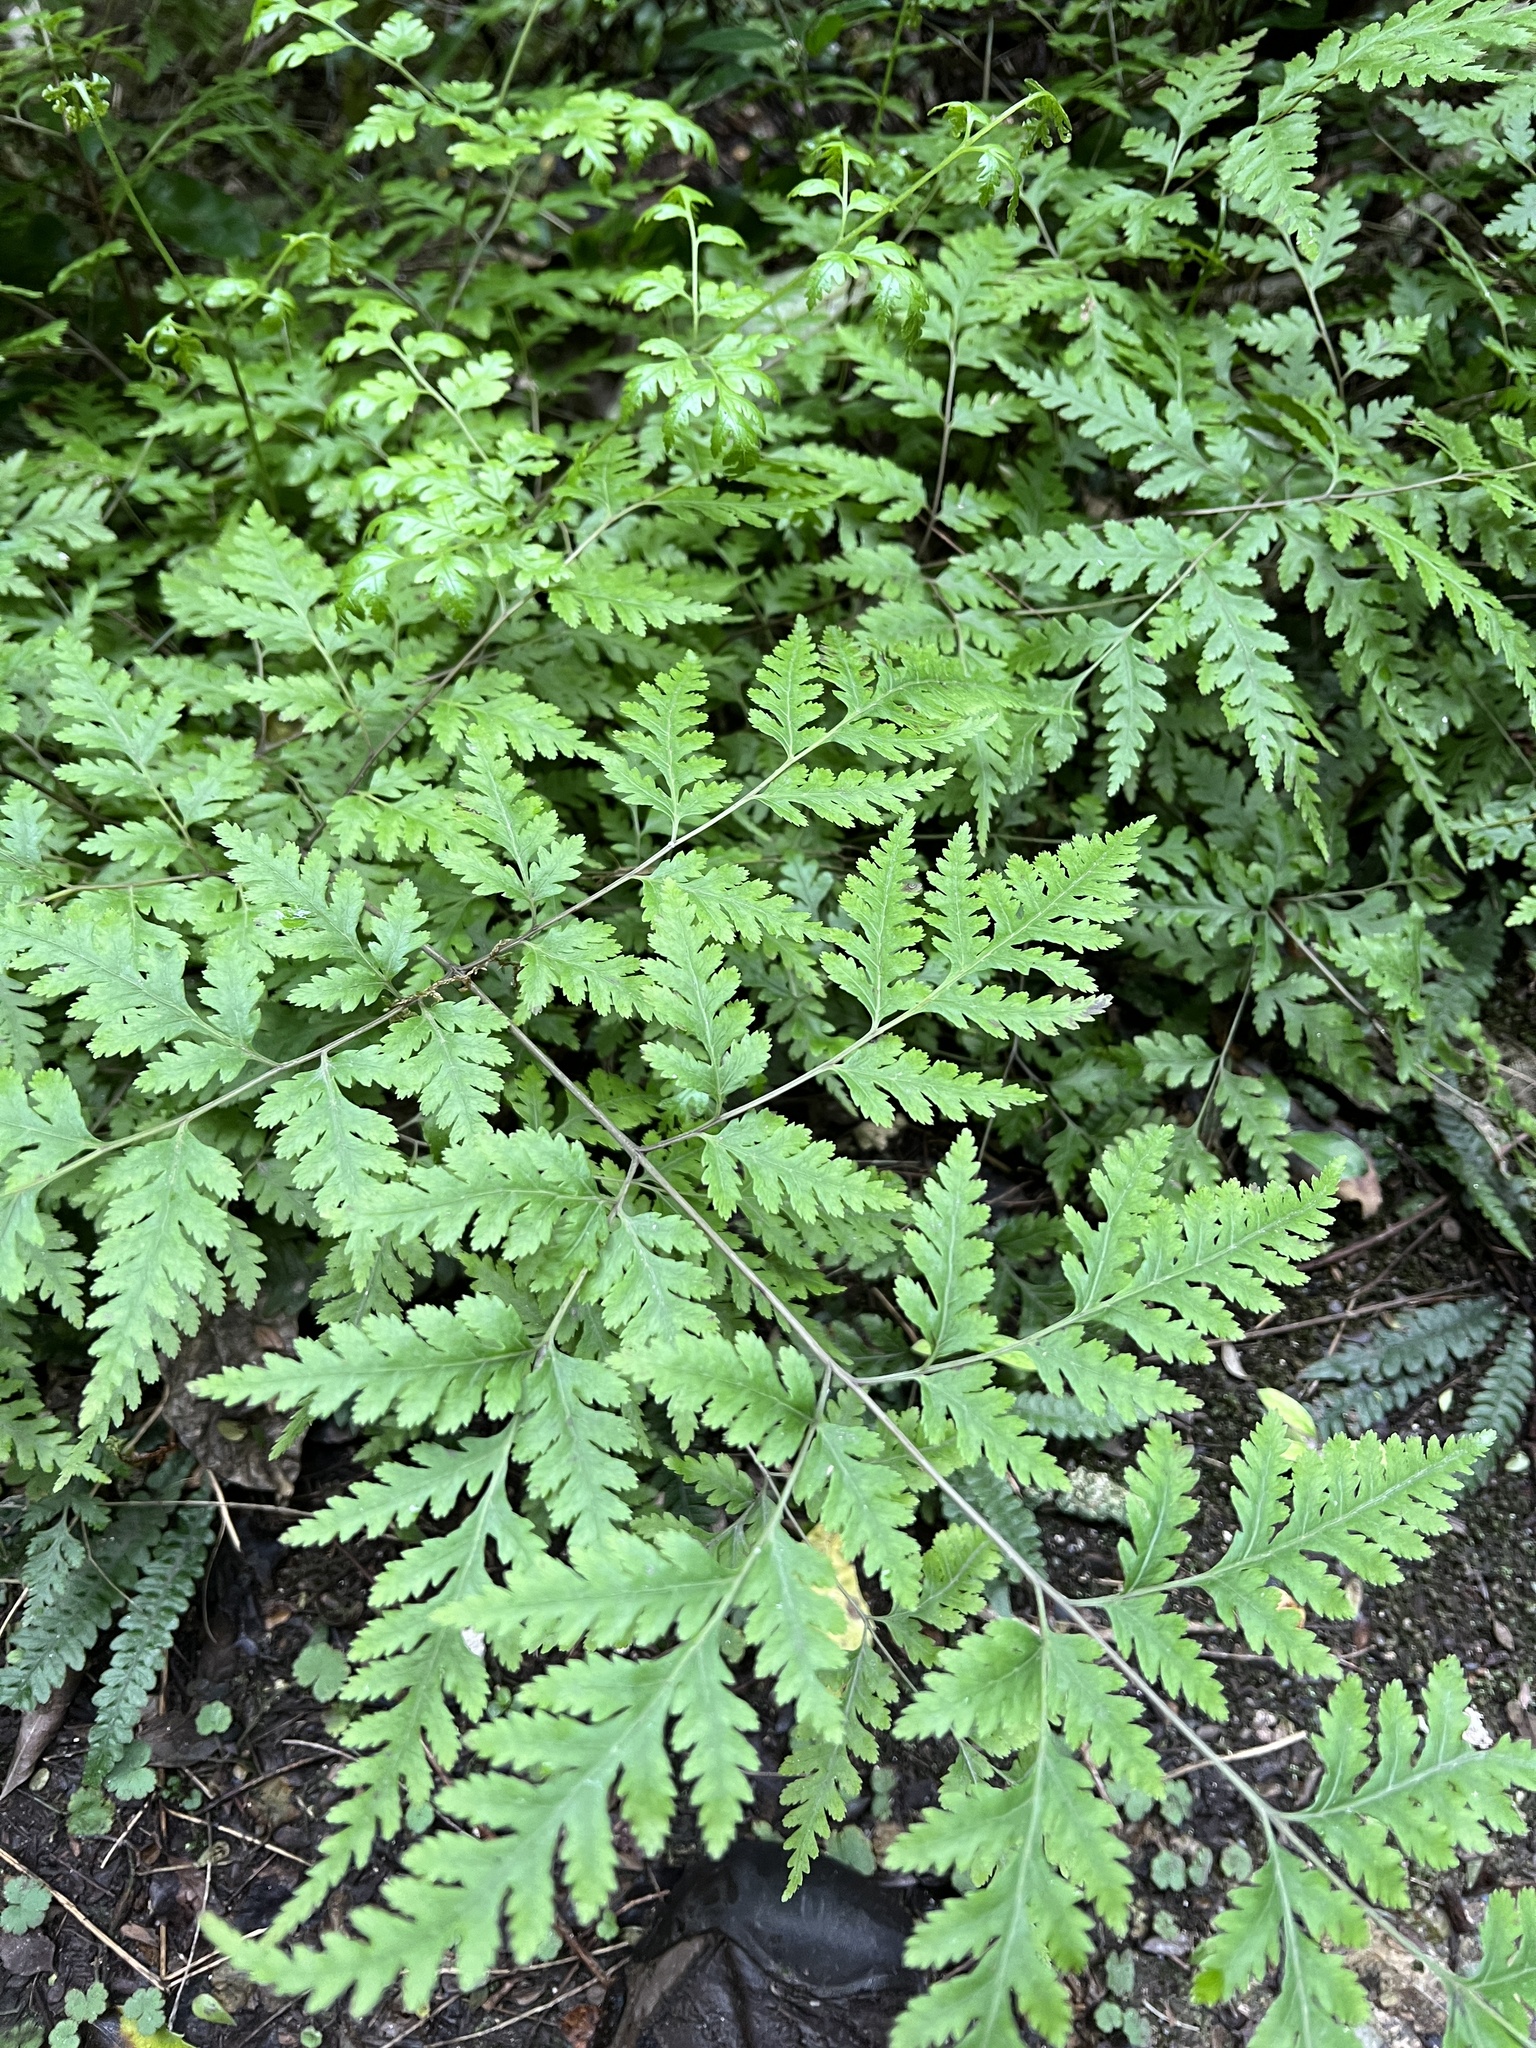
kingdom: Plantae
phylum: Tracheophyta
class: Polypodiopsida
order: Polypodiales
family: Pteridaceae
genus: Pteris
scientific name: Pteris macilenta
